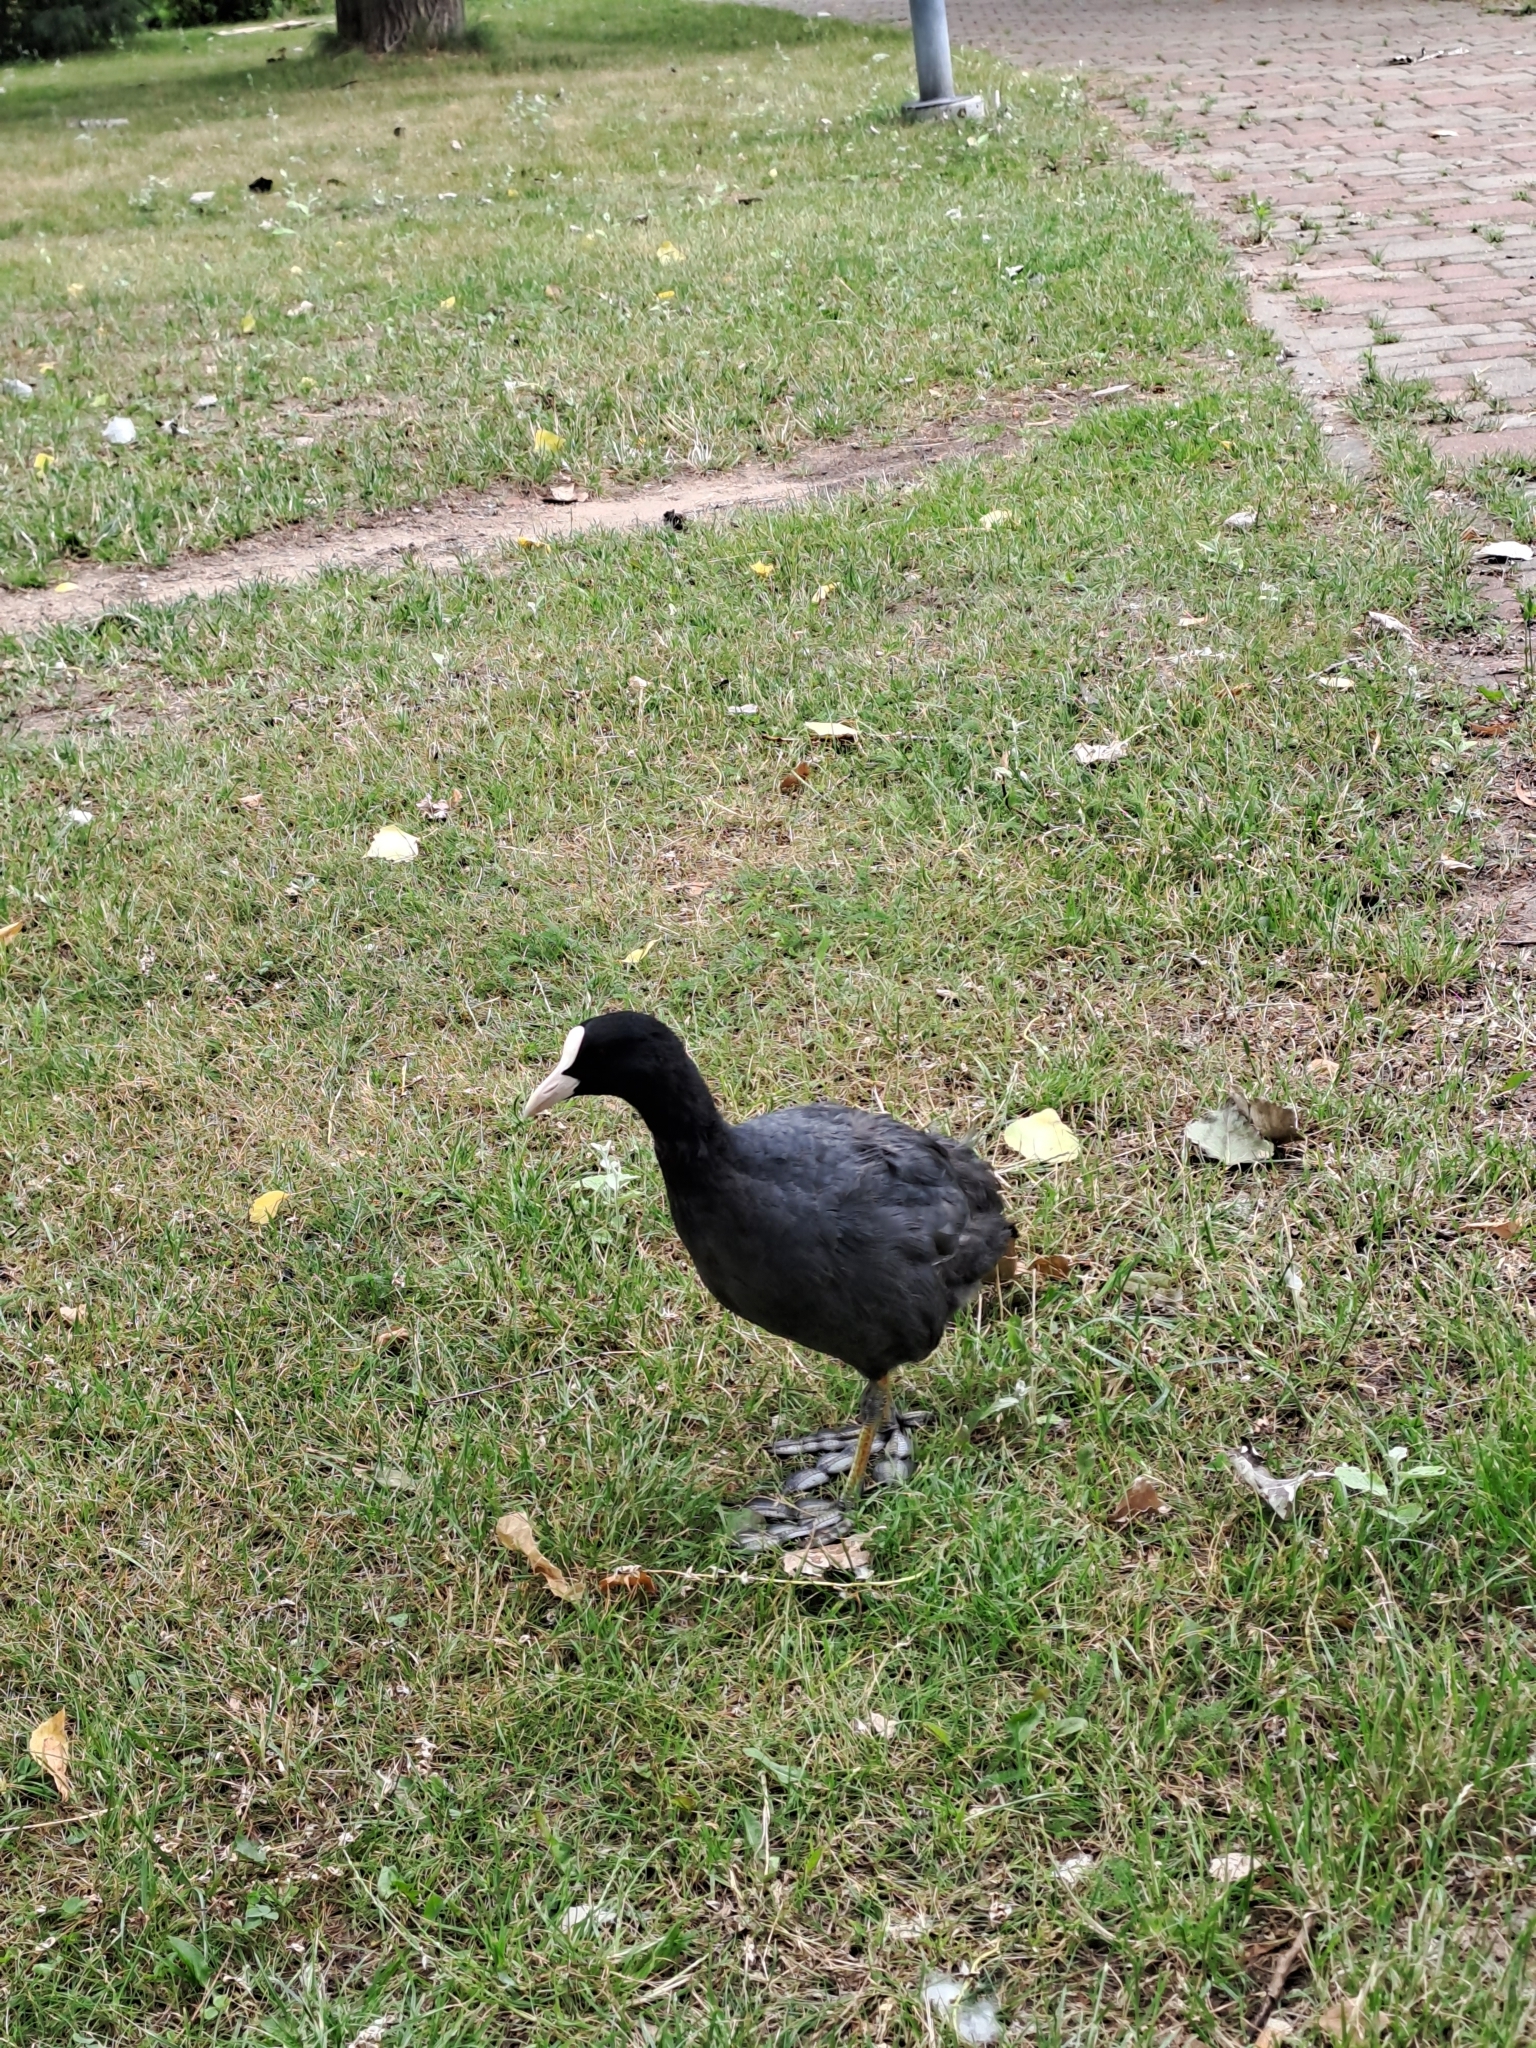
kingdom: Animalia
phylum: Chordata
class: Aves
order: Gruiformes
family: Rallidae
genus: Fulica
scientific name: Fulica atra
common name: Eurasian coot
